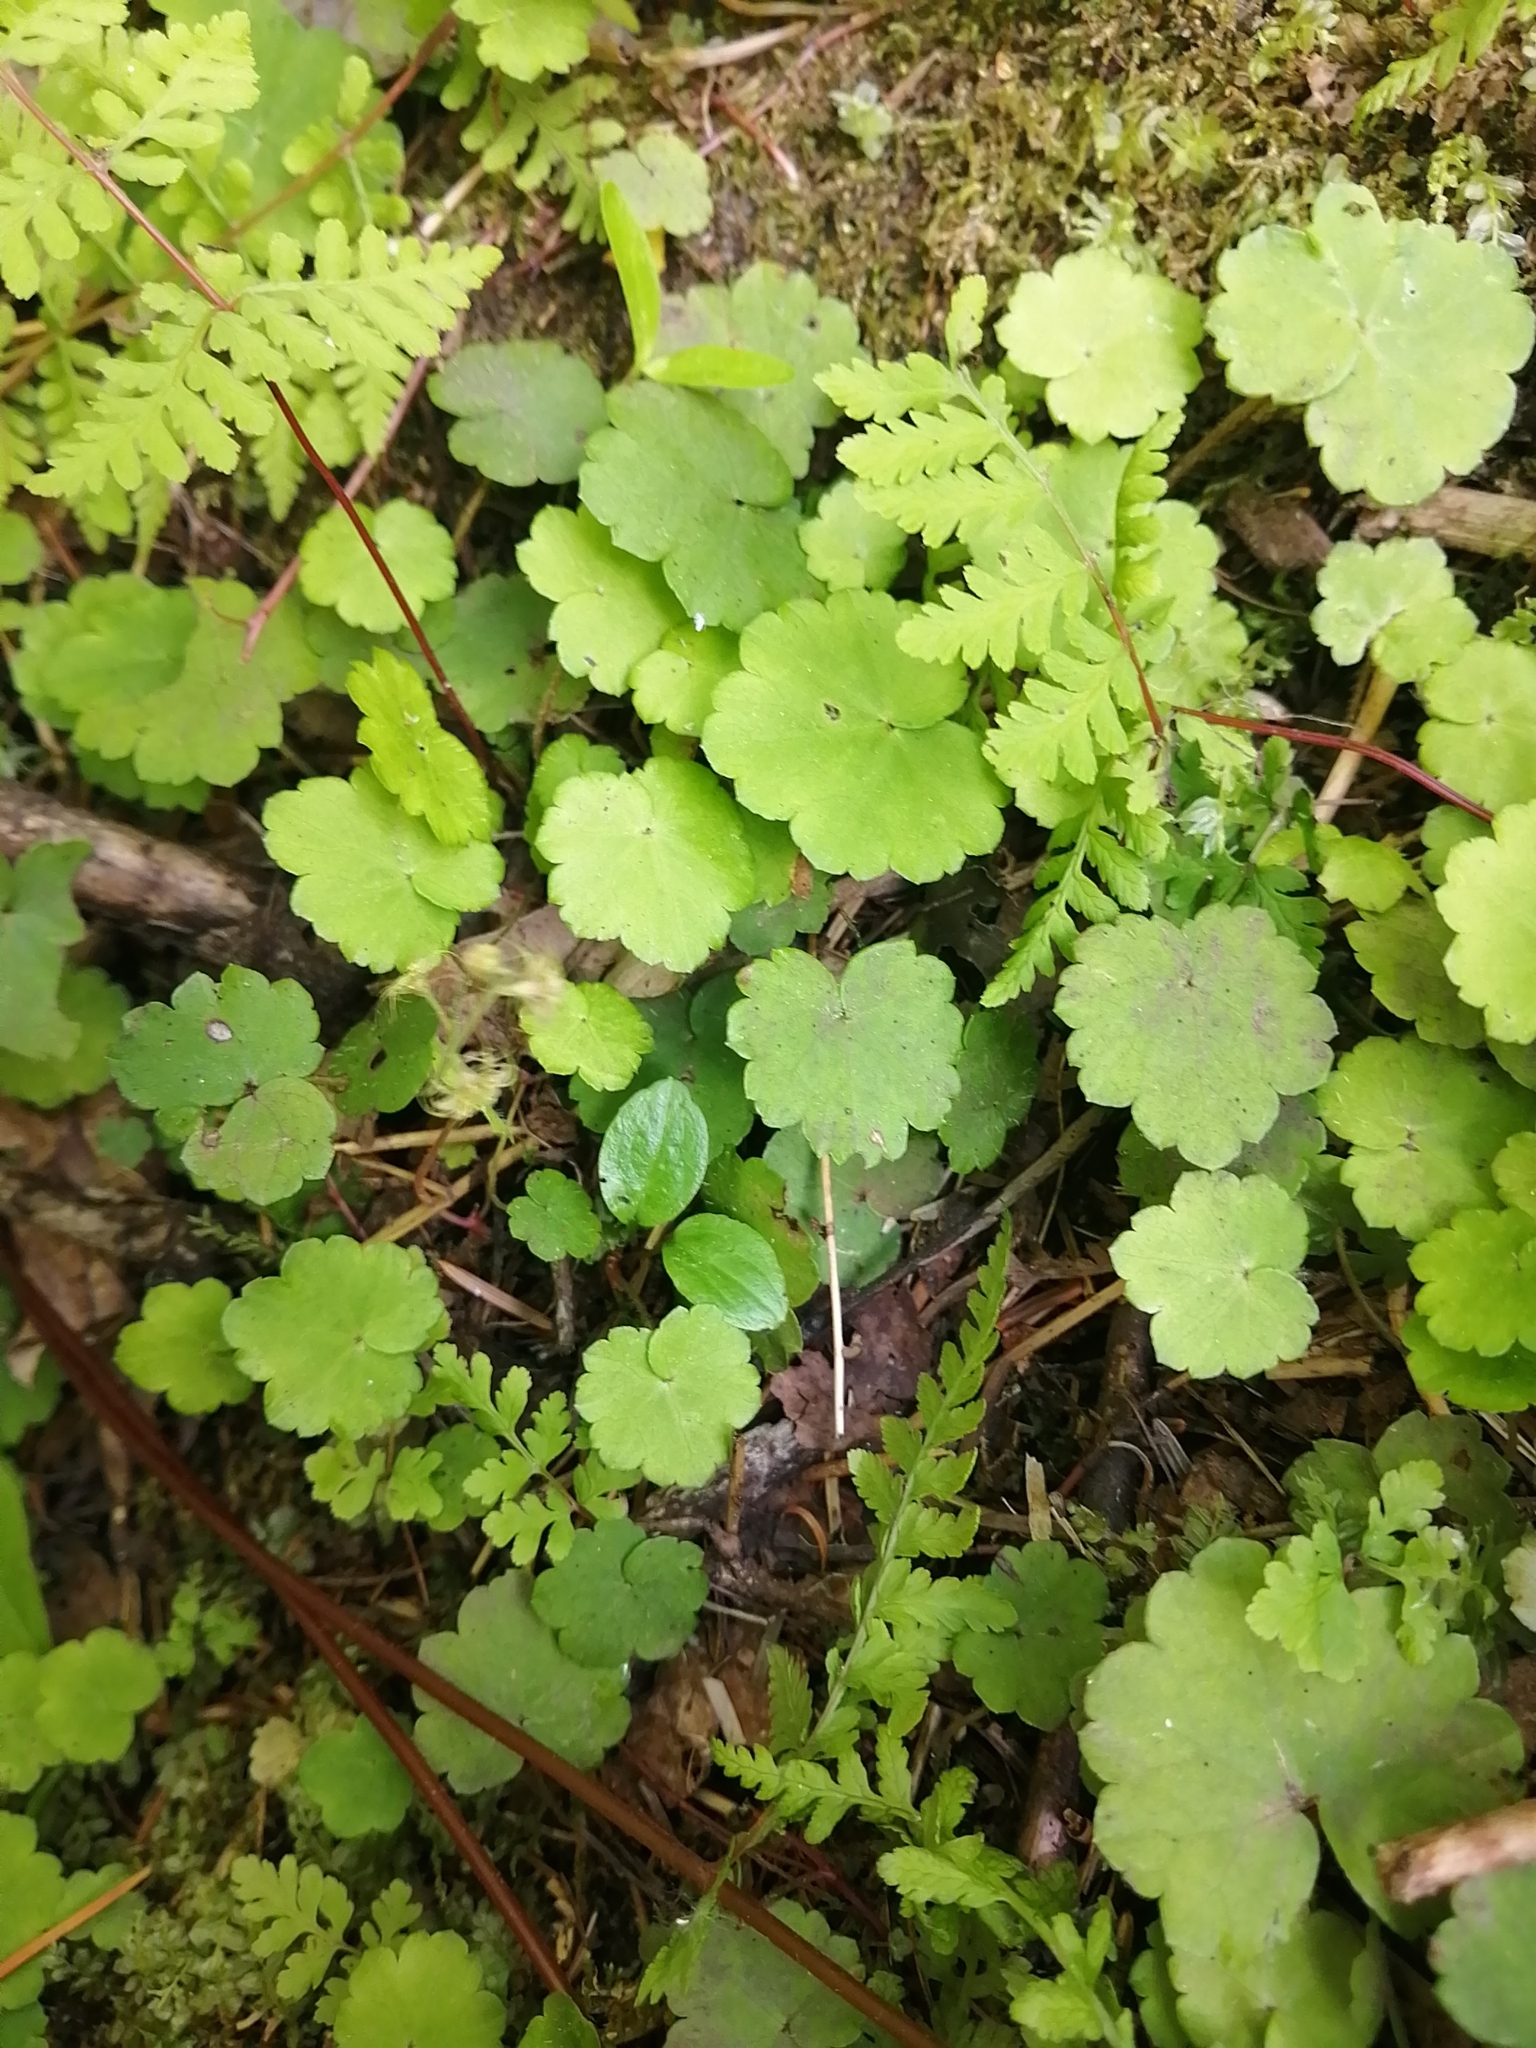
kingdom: Plantae
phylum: Tracheophyta
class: Magnoliopsida
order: Saxifragales
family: Saxifragaceae
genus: Mitella
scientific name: Mitella nuda
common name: Bare-stemmed bishop's-cap
